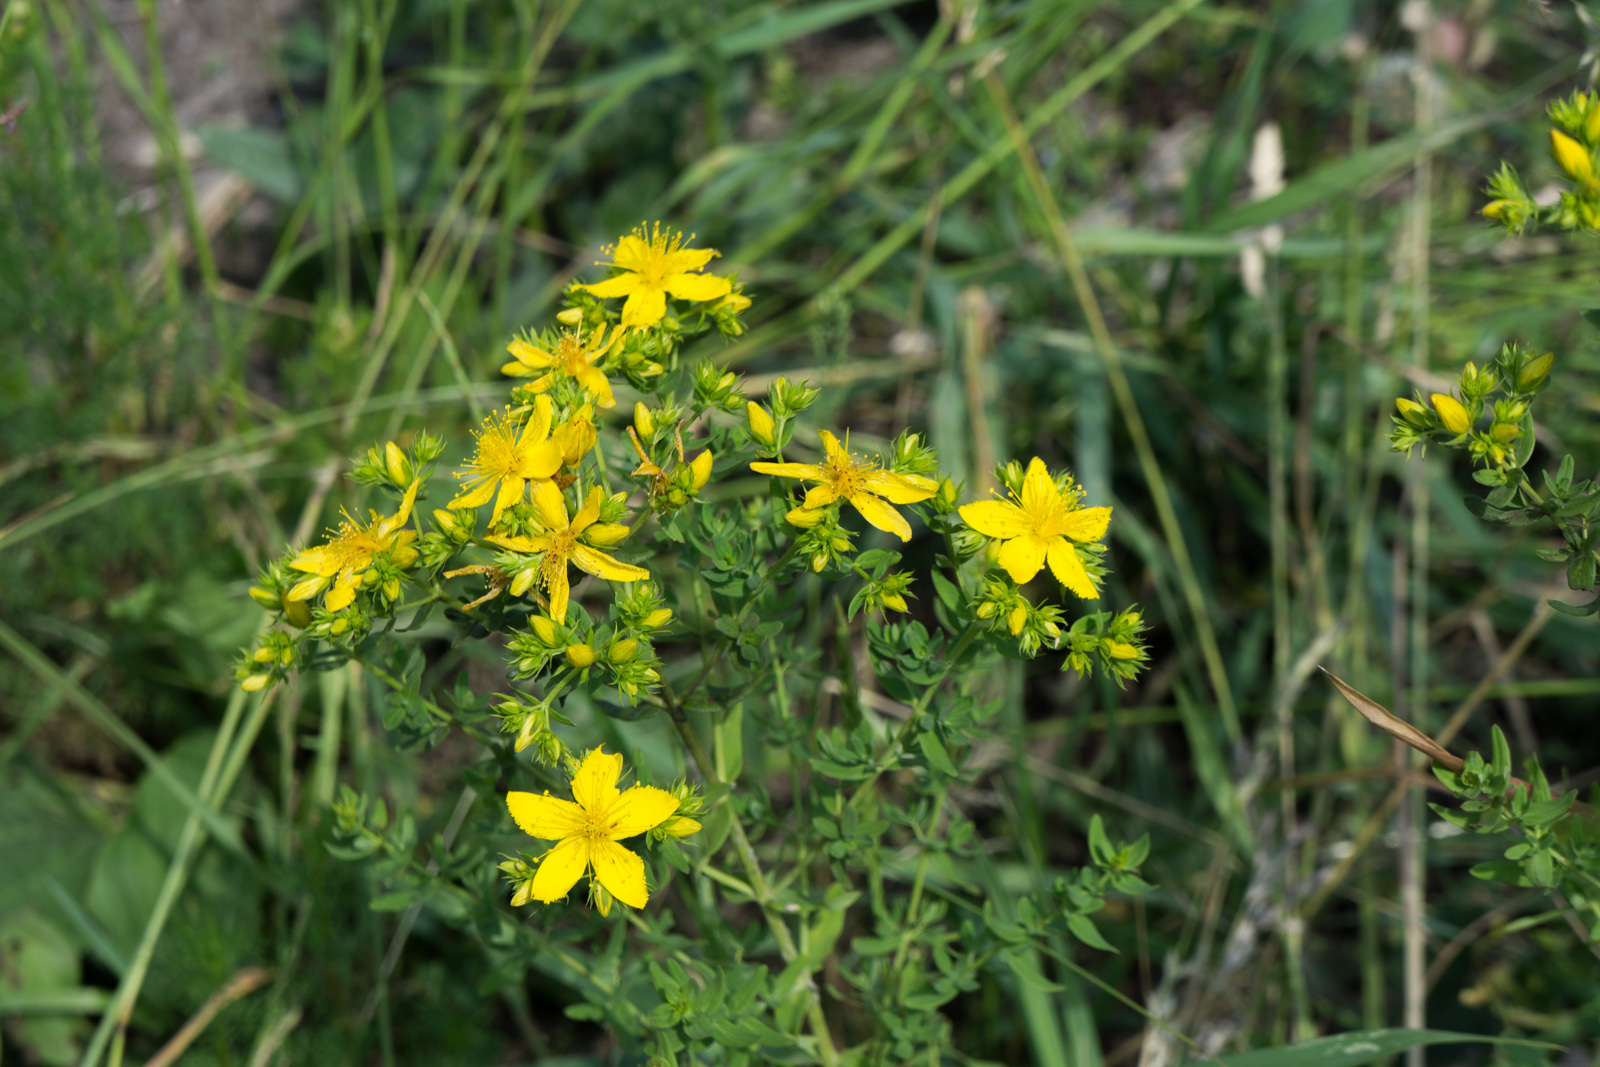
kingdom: Plantae
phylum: Tracheophyta
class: Magnoliopsida
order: Malpighiales
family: Hypericaceae
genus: Hypericum
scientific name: Hypericum perforatum
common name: Common st. johnswort
